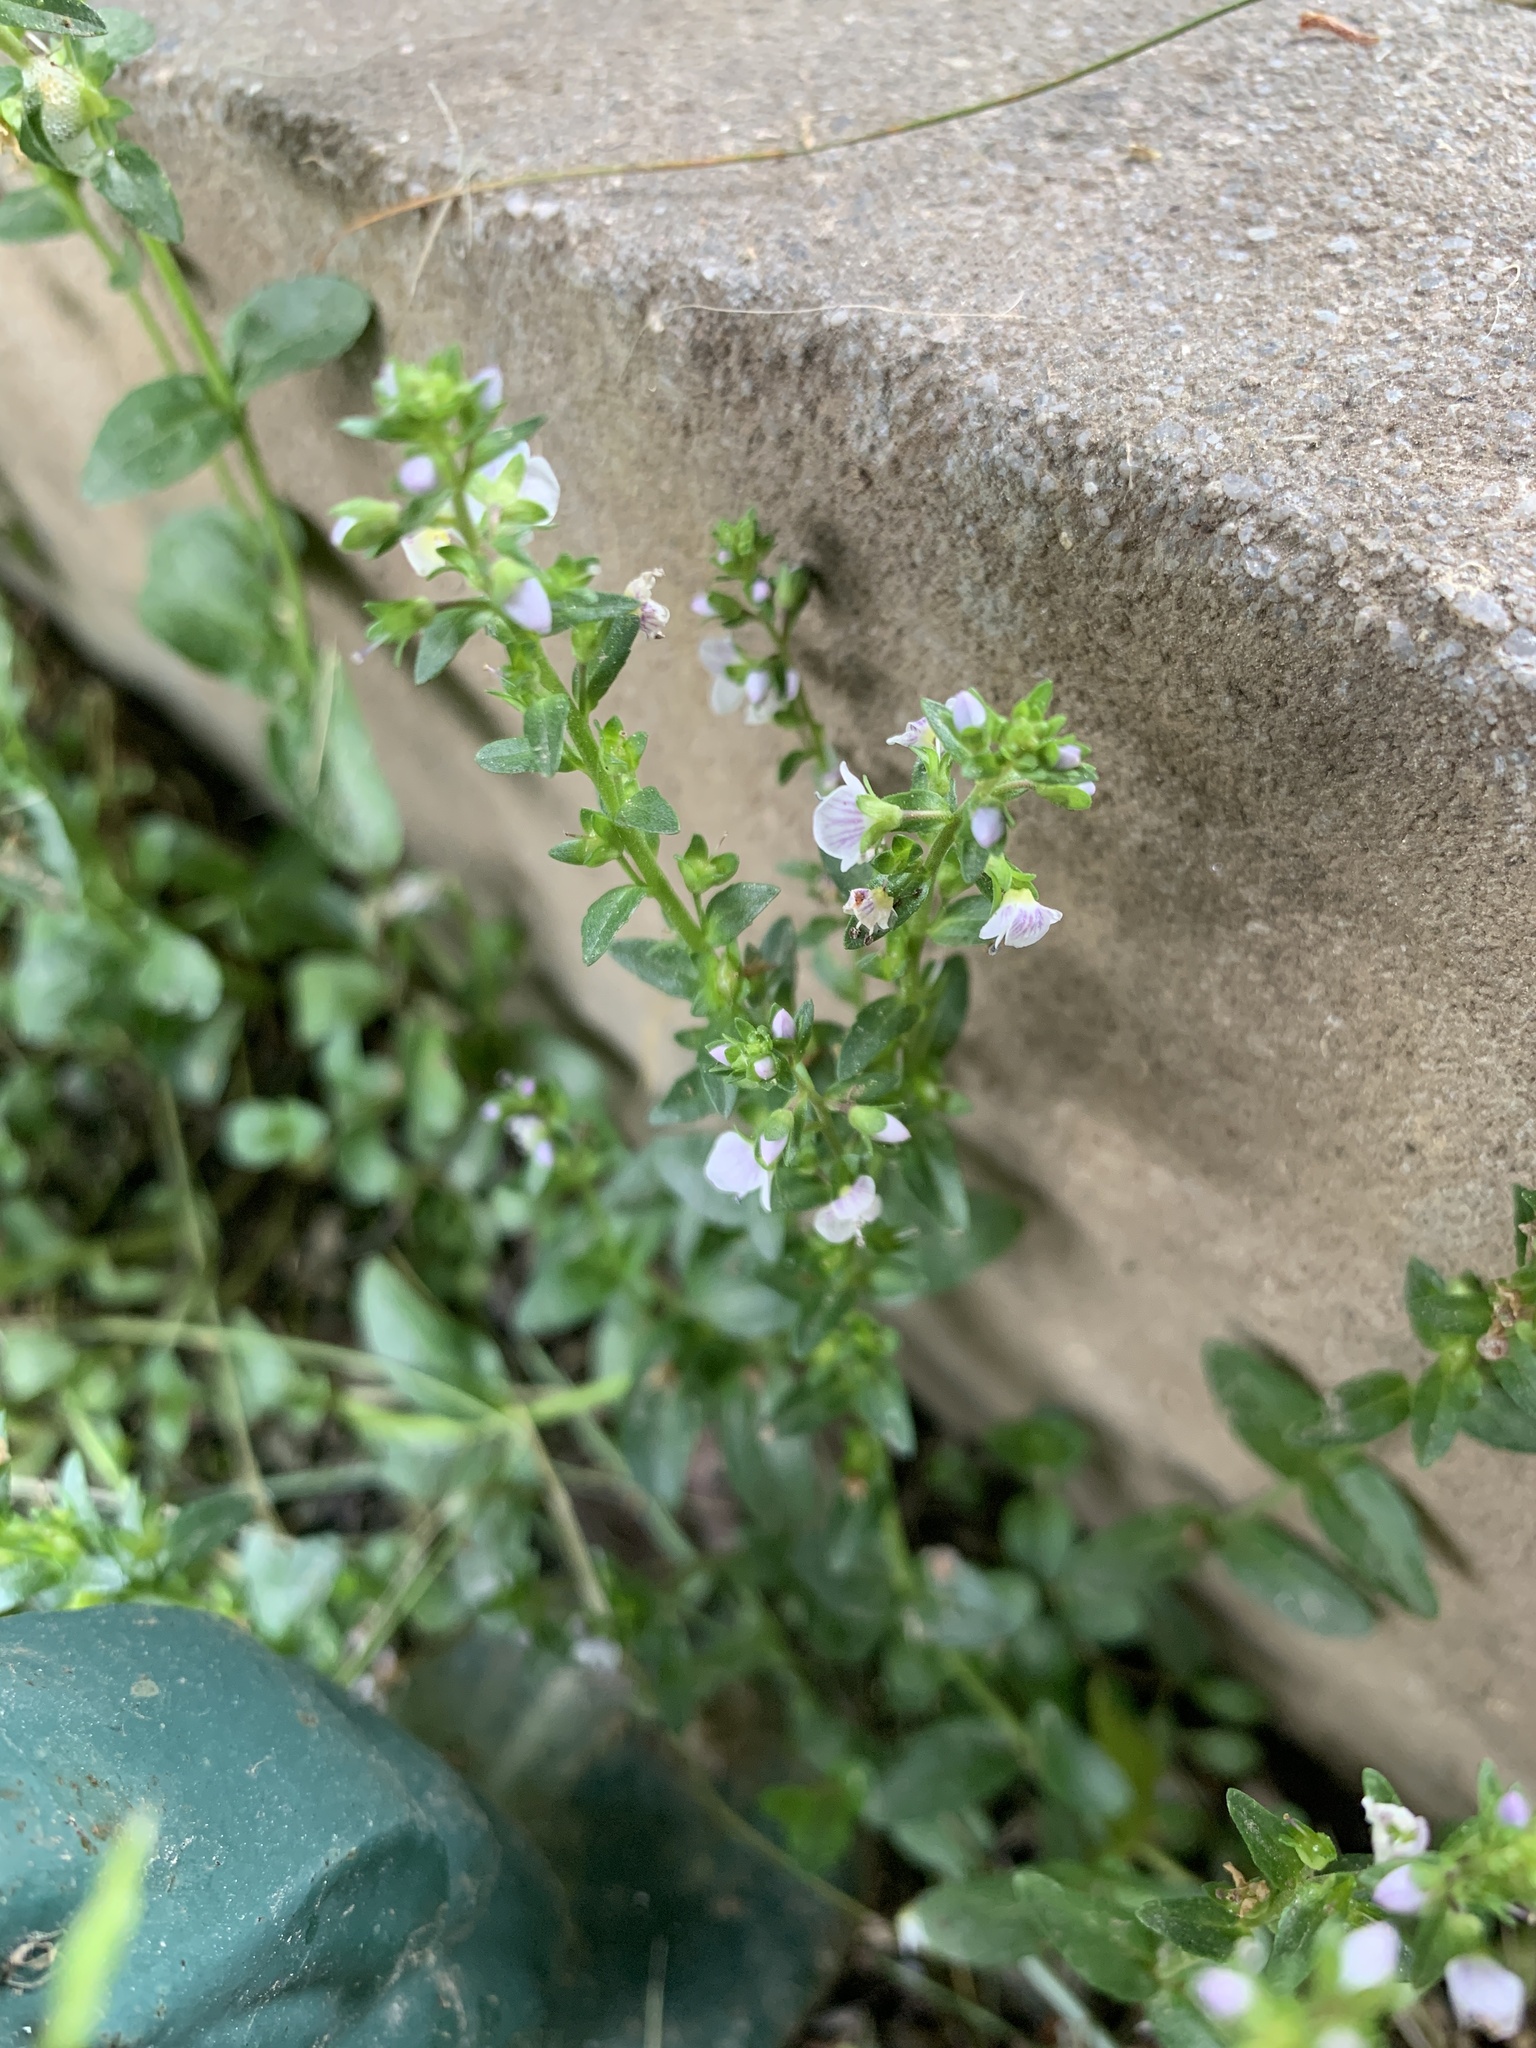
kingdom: Plantae
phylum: Tracheophyta
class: Magnoliopsida
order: Lamiales
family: Plantaginaceae
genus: Veronica
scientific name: Veronica serpyllifolia
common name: Thyme-leaved speedwell
